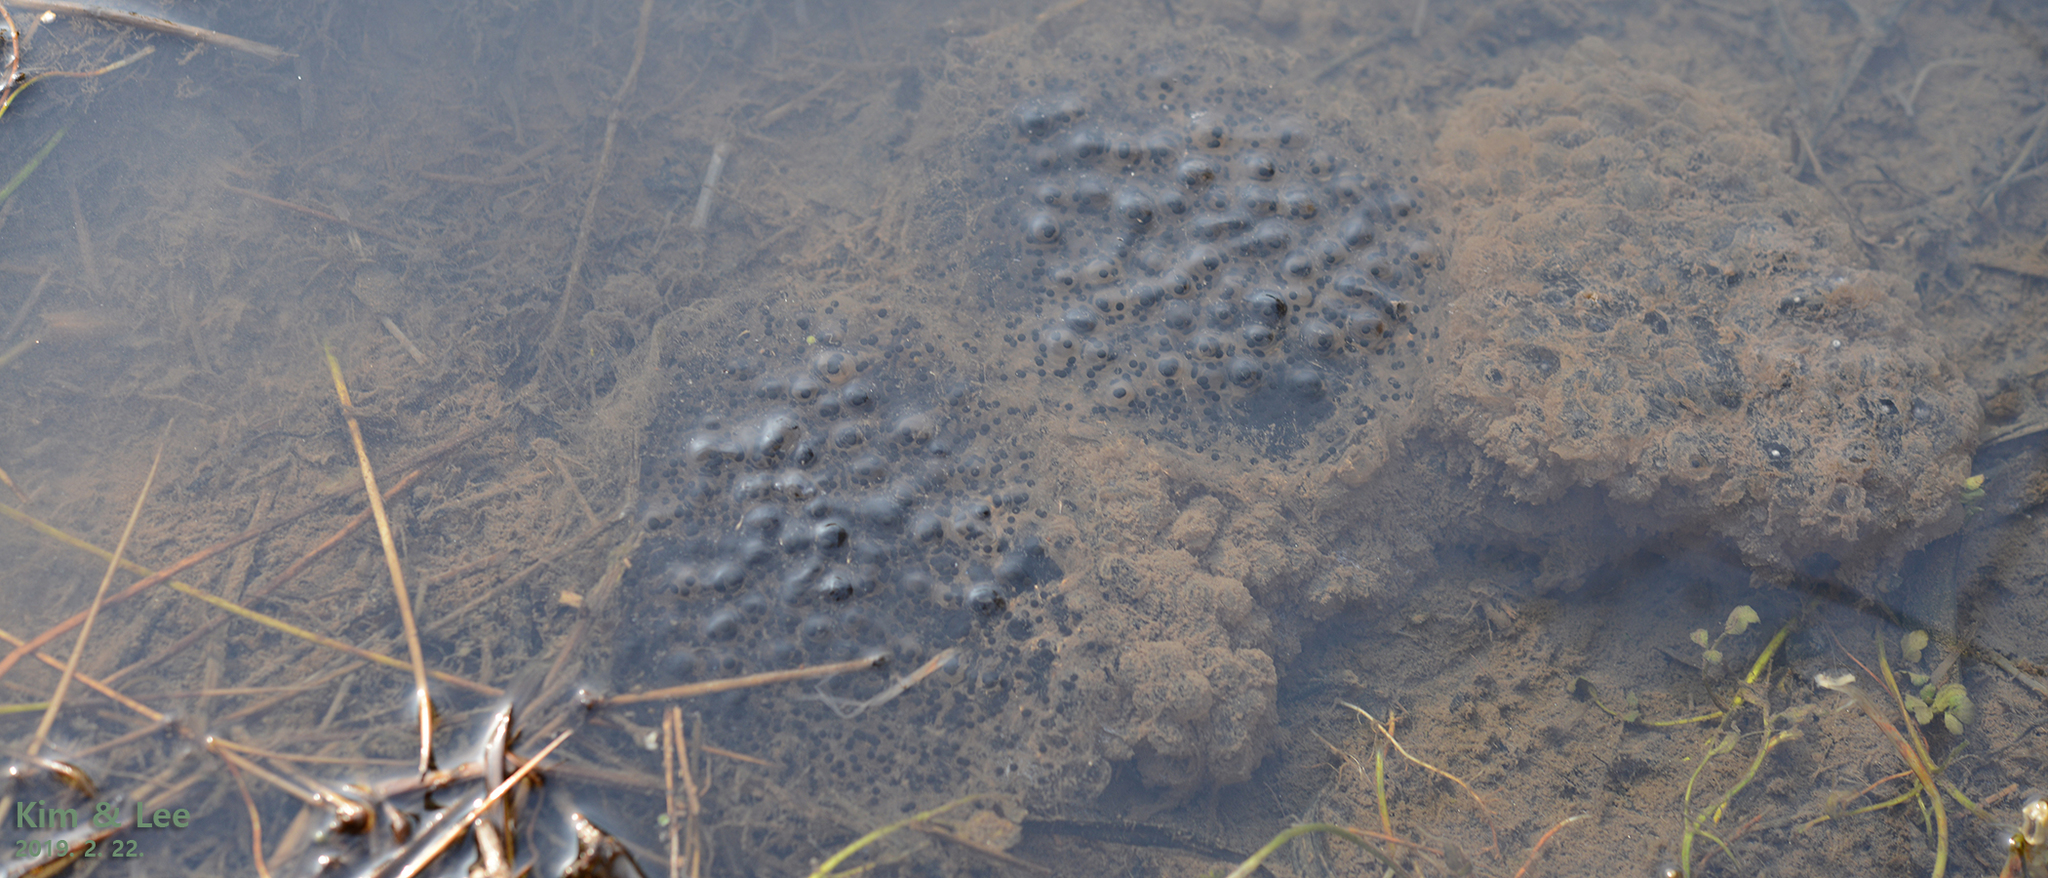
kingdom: Animalia
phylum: Chordata
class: Amphibia
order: Anura
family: Ranidae
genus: Rana
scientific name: Rana uenoi
